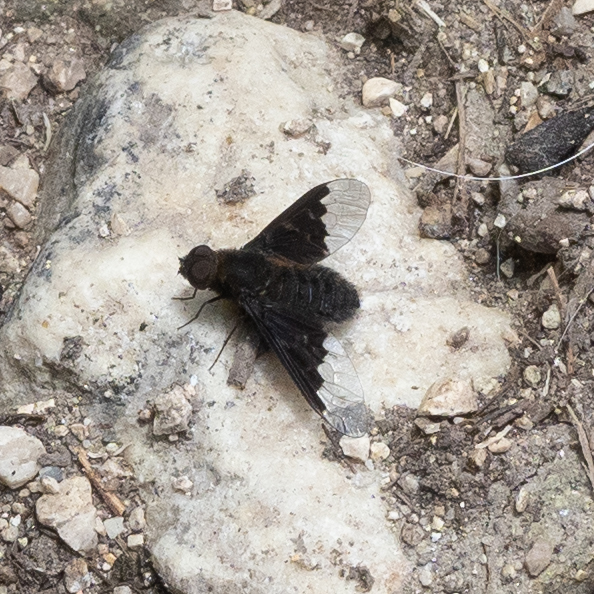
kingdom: Animalia
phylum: Arthropoda
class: Insecta
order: Diptera
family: Bombyliidae
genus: Hemipenthes
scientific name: Hemipenthes morio
